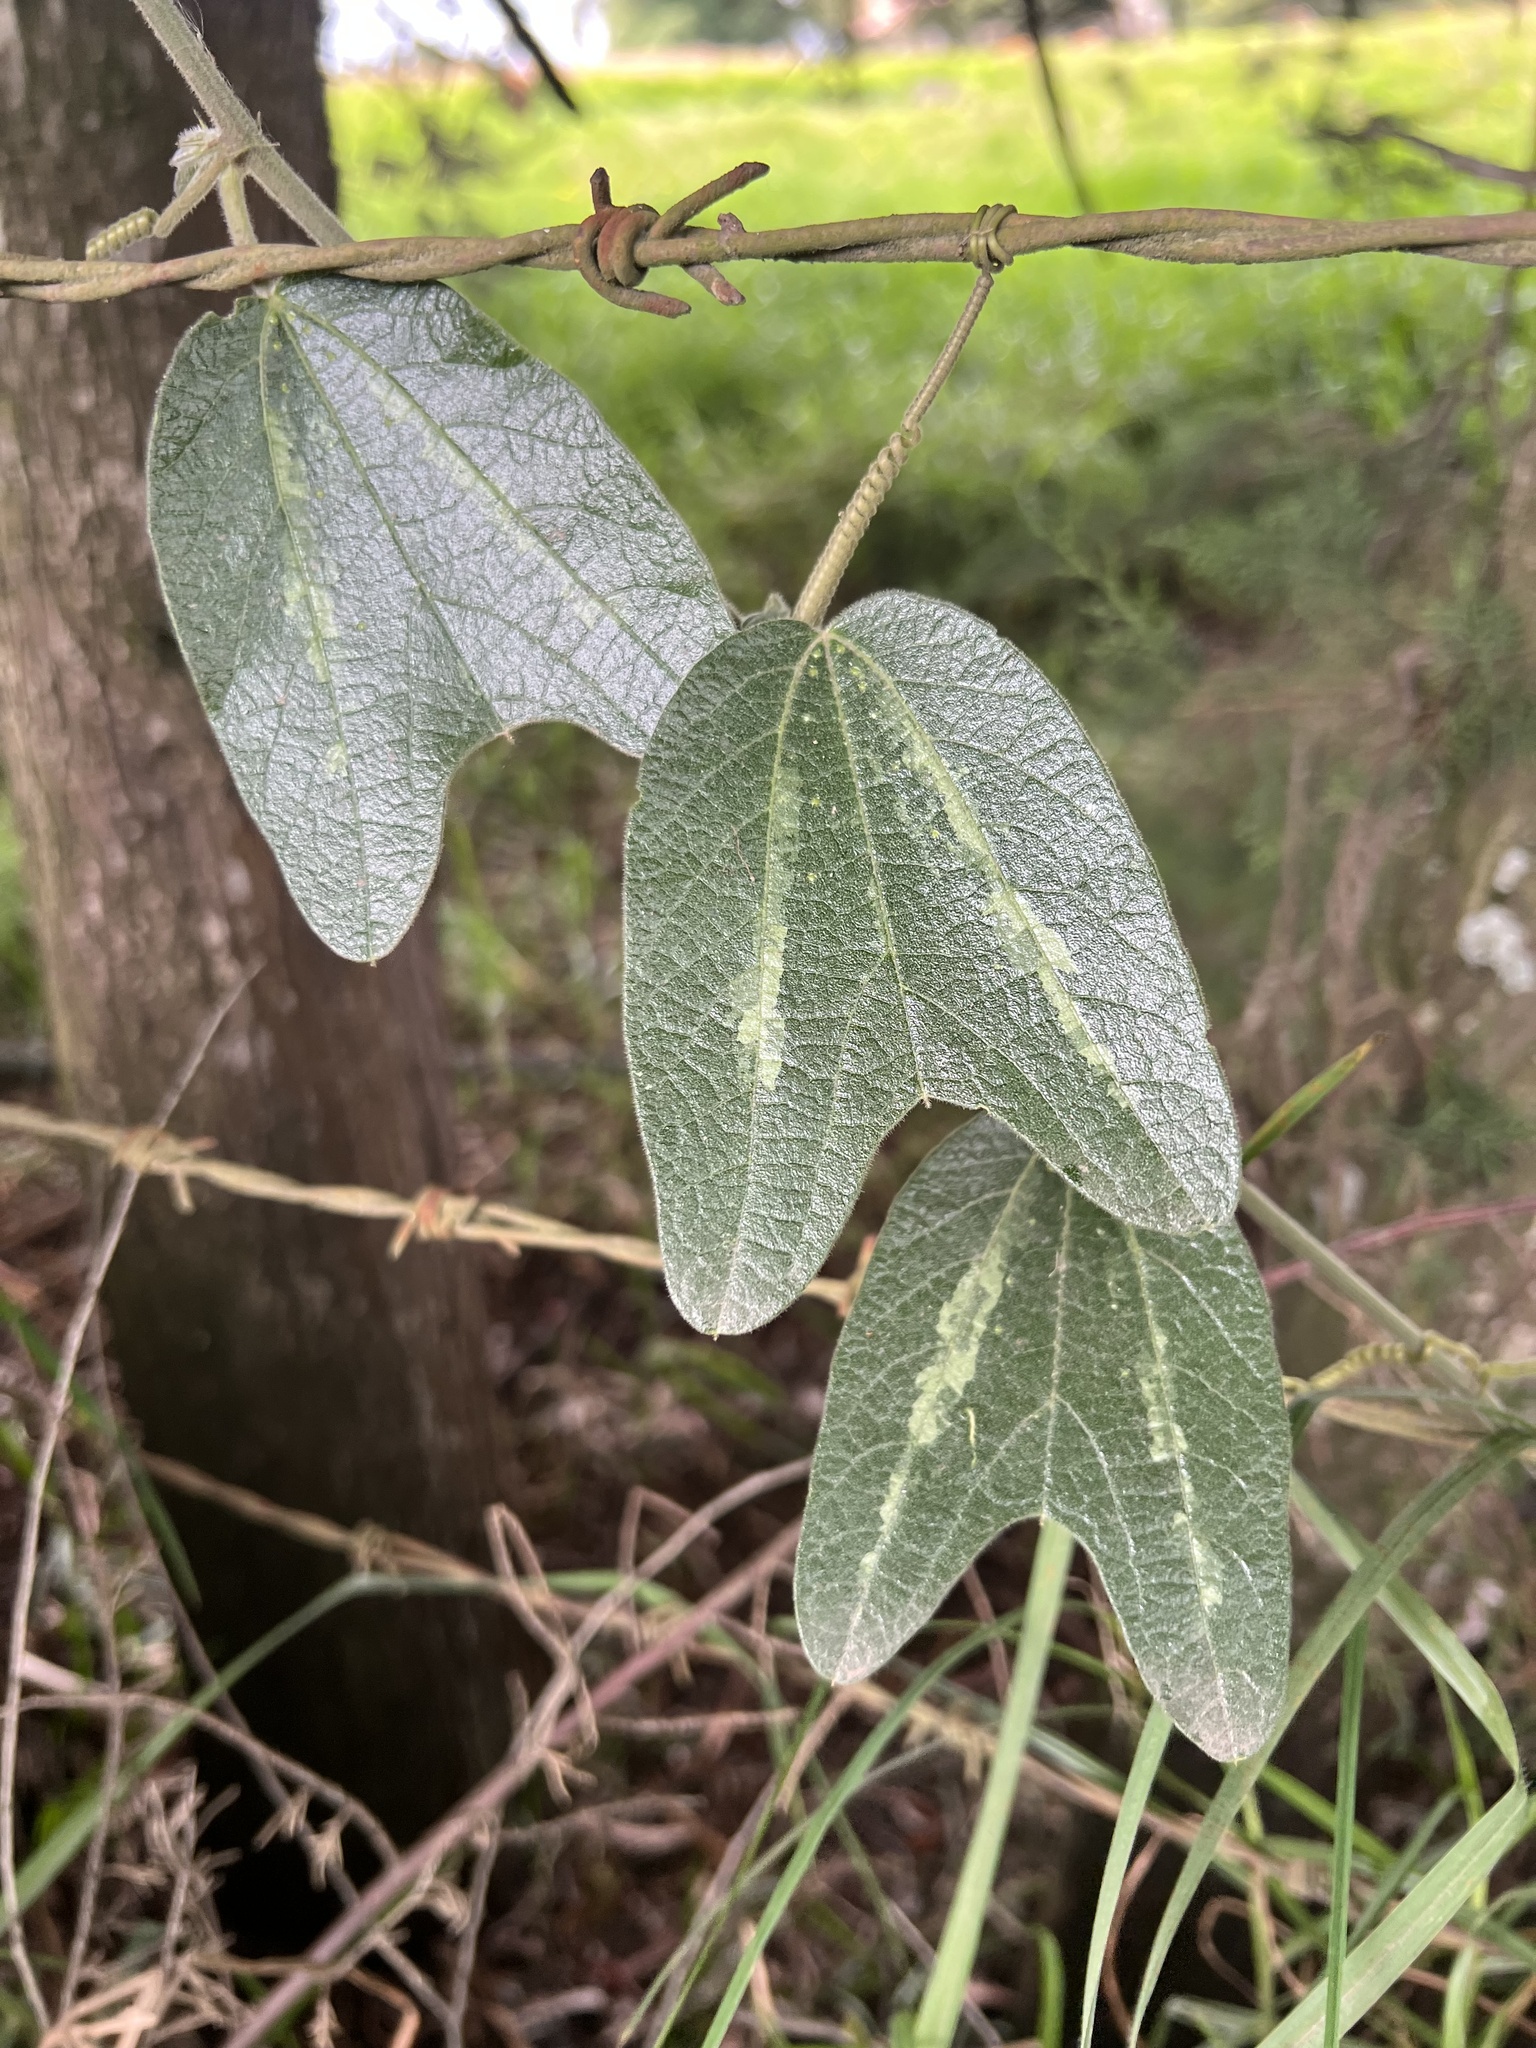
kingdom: Plantae
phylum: Tracheophyta
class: Magnoliopsida
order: Malpighiales
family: Passifloraceae
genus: Passiflora
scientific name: Passiflora bogotensis
